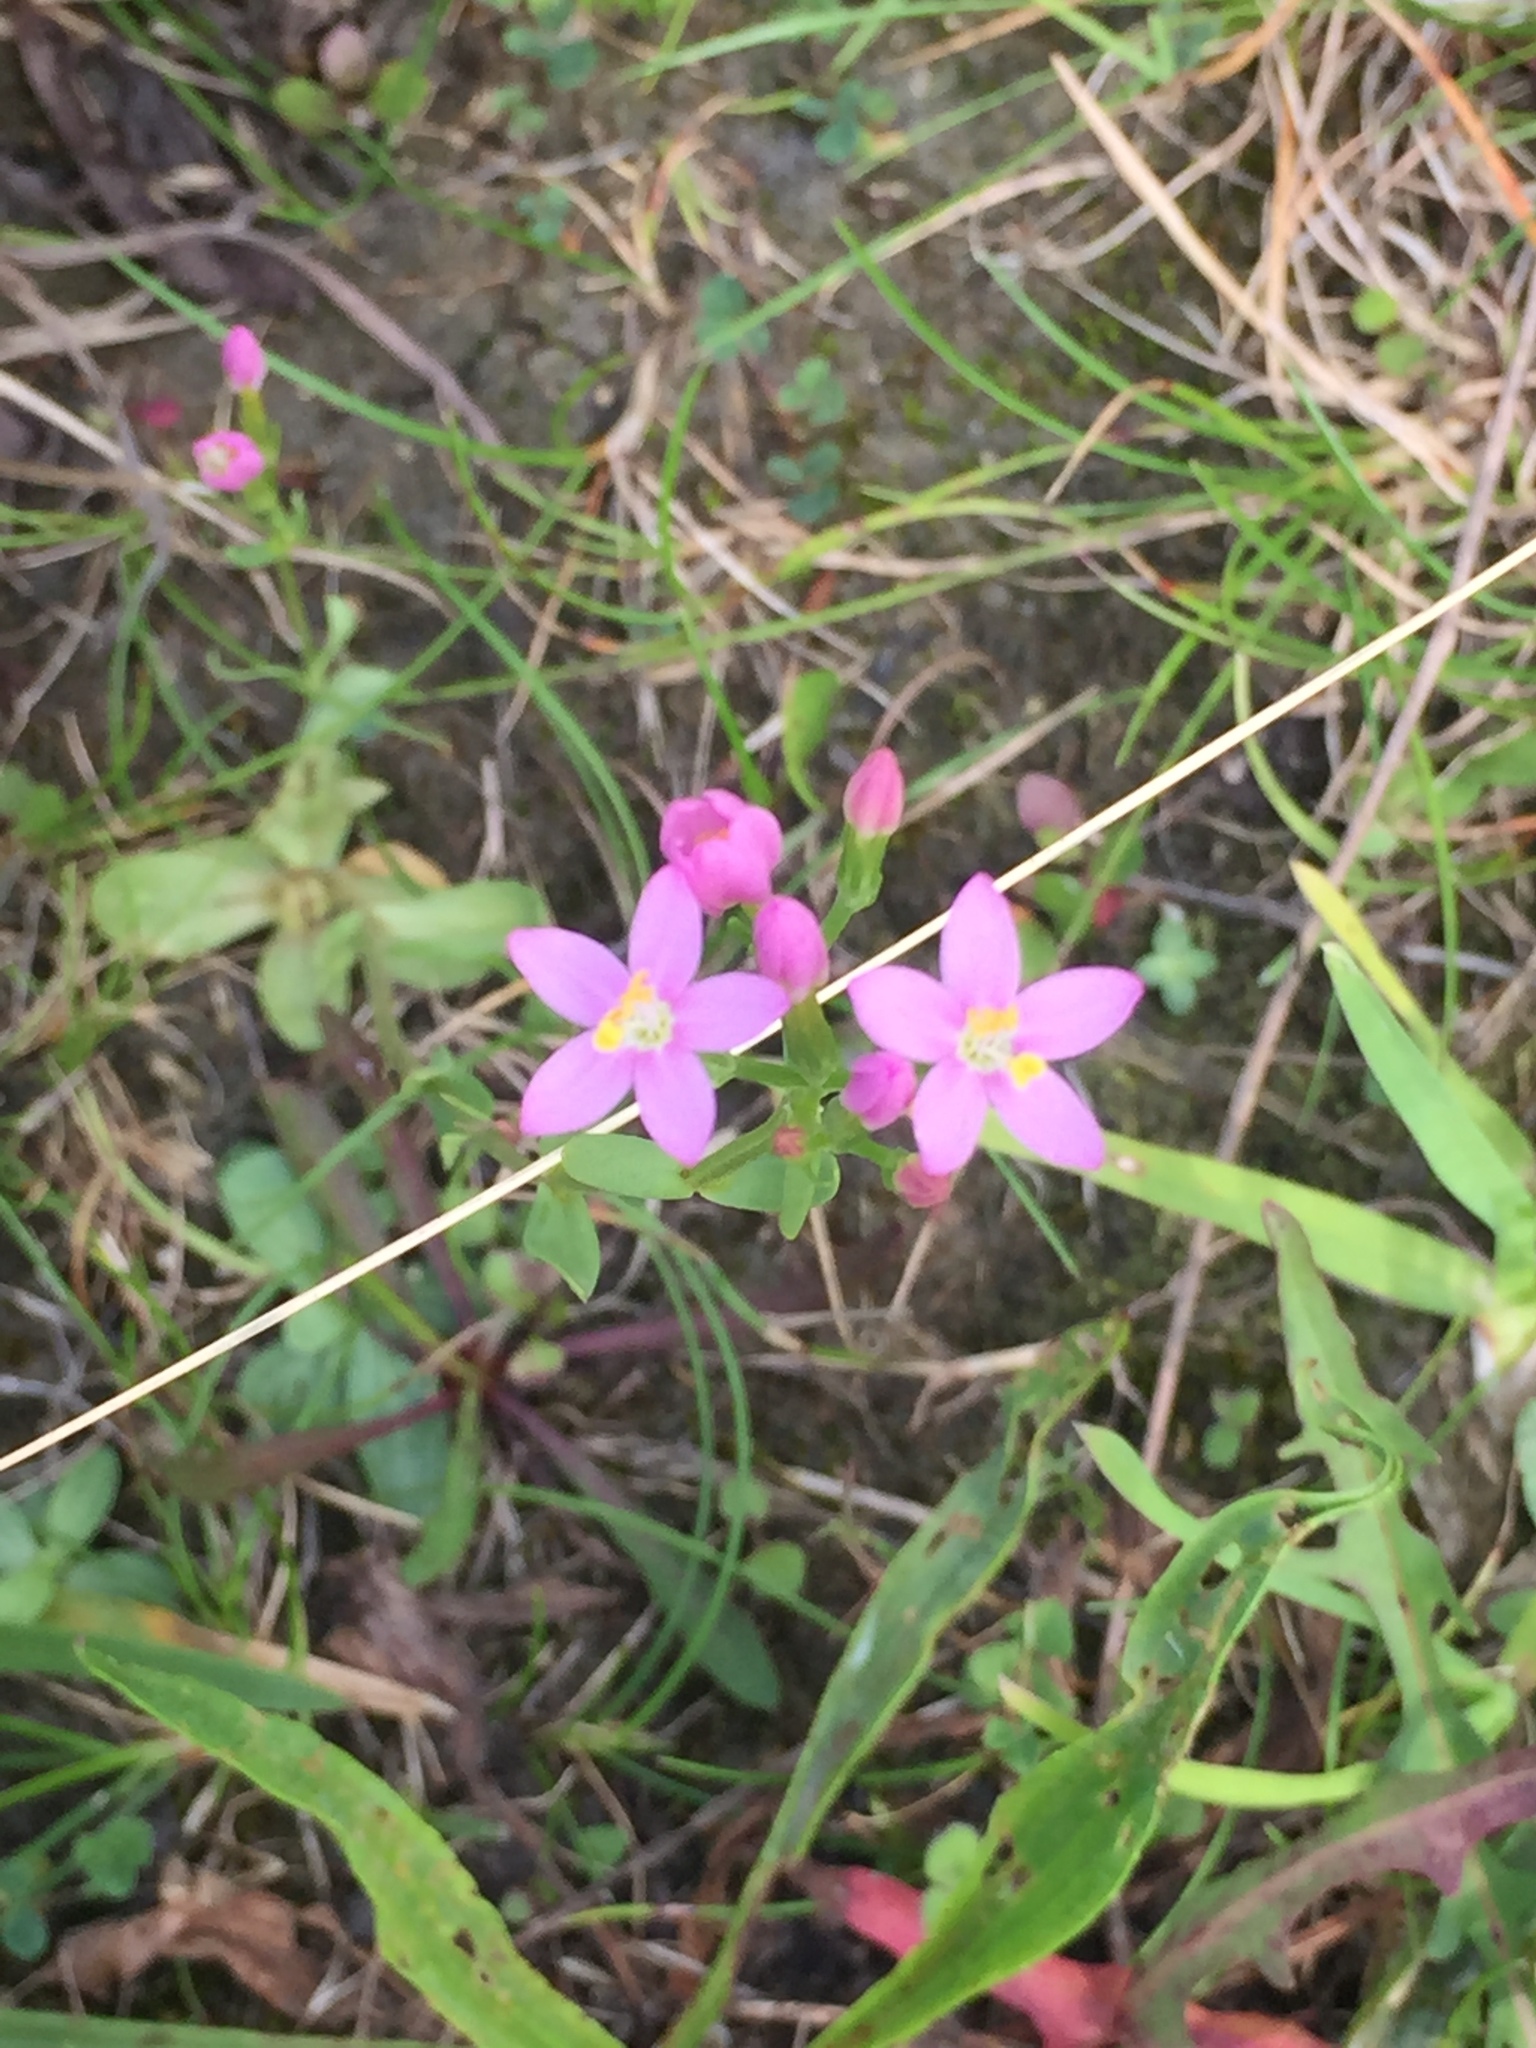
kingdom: Plantae
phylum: Tracheophyta
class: Magnoliopsida
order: Gentianales
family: Gentianaceae
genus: Centaurium
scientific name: Centaurium erythraea
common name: Common centaury
